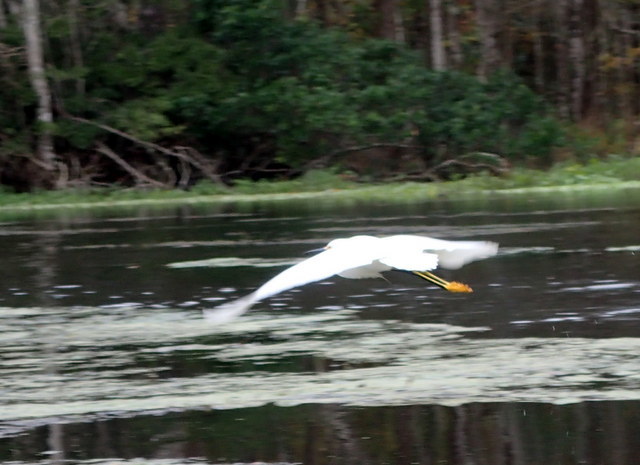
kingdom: Animalia
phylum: Chordata
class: Aves
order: Pelecaniformes
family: Ardeidae
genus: Egretta
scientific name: Egretta thula
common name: Snowy egret
